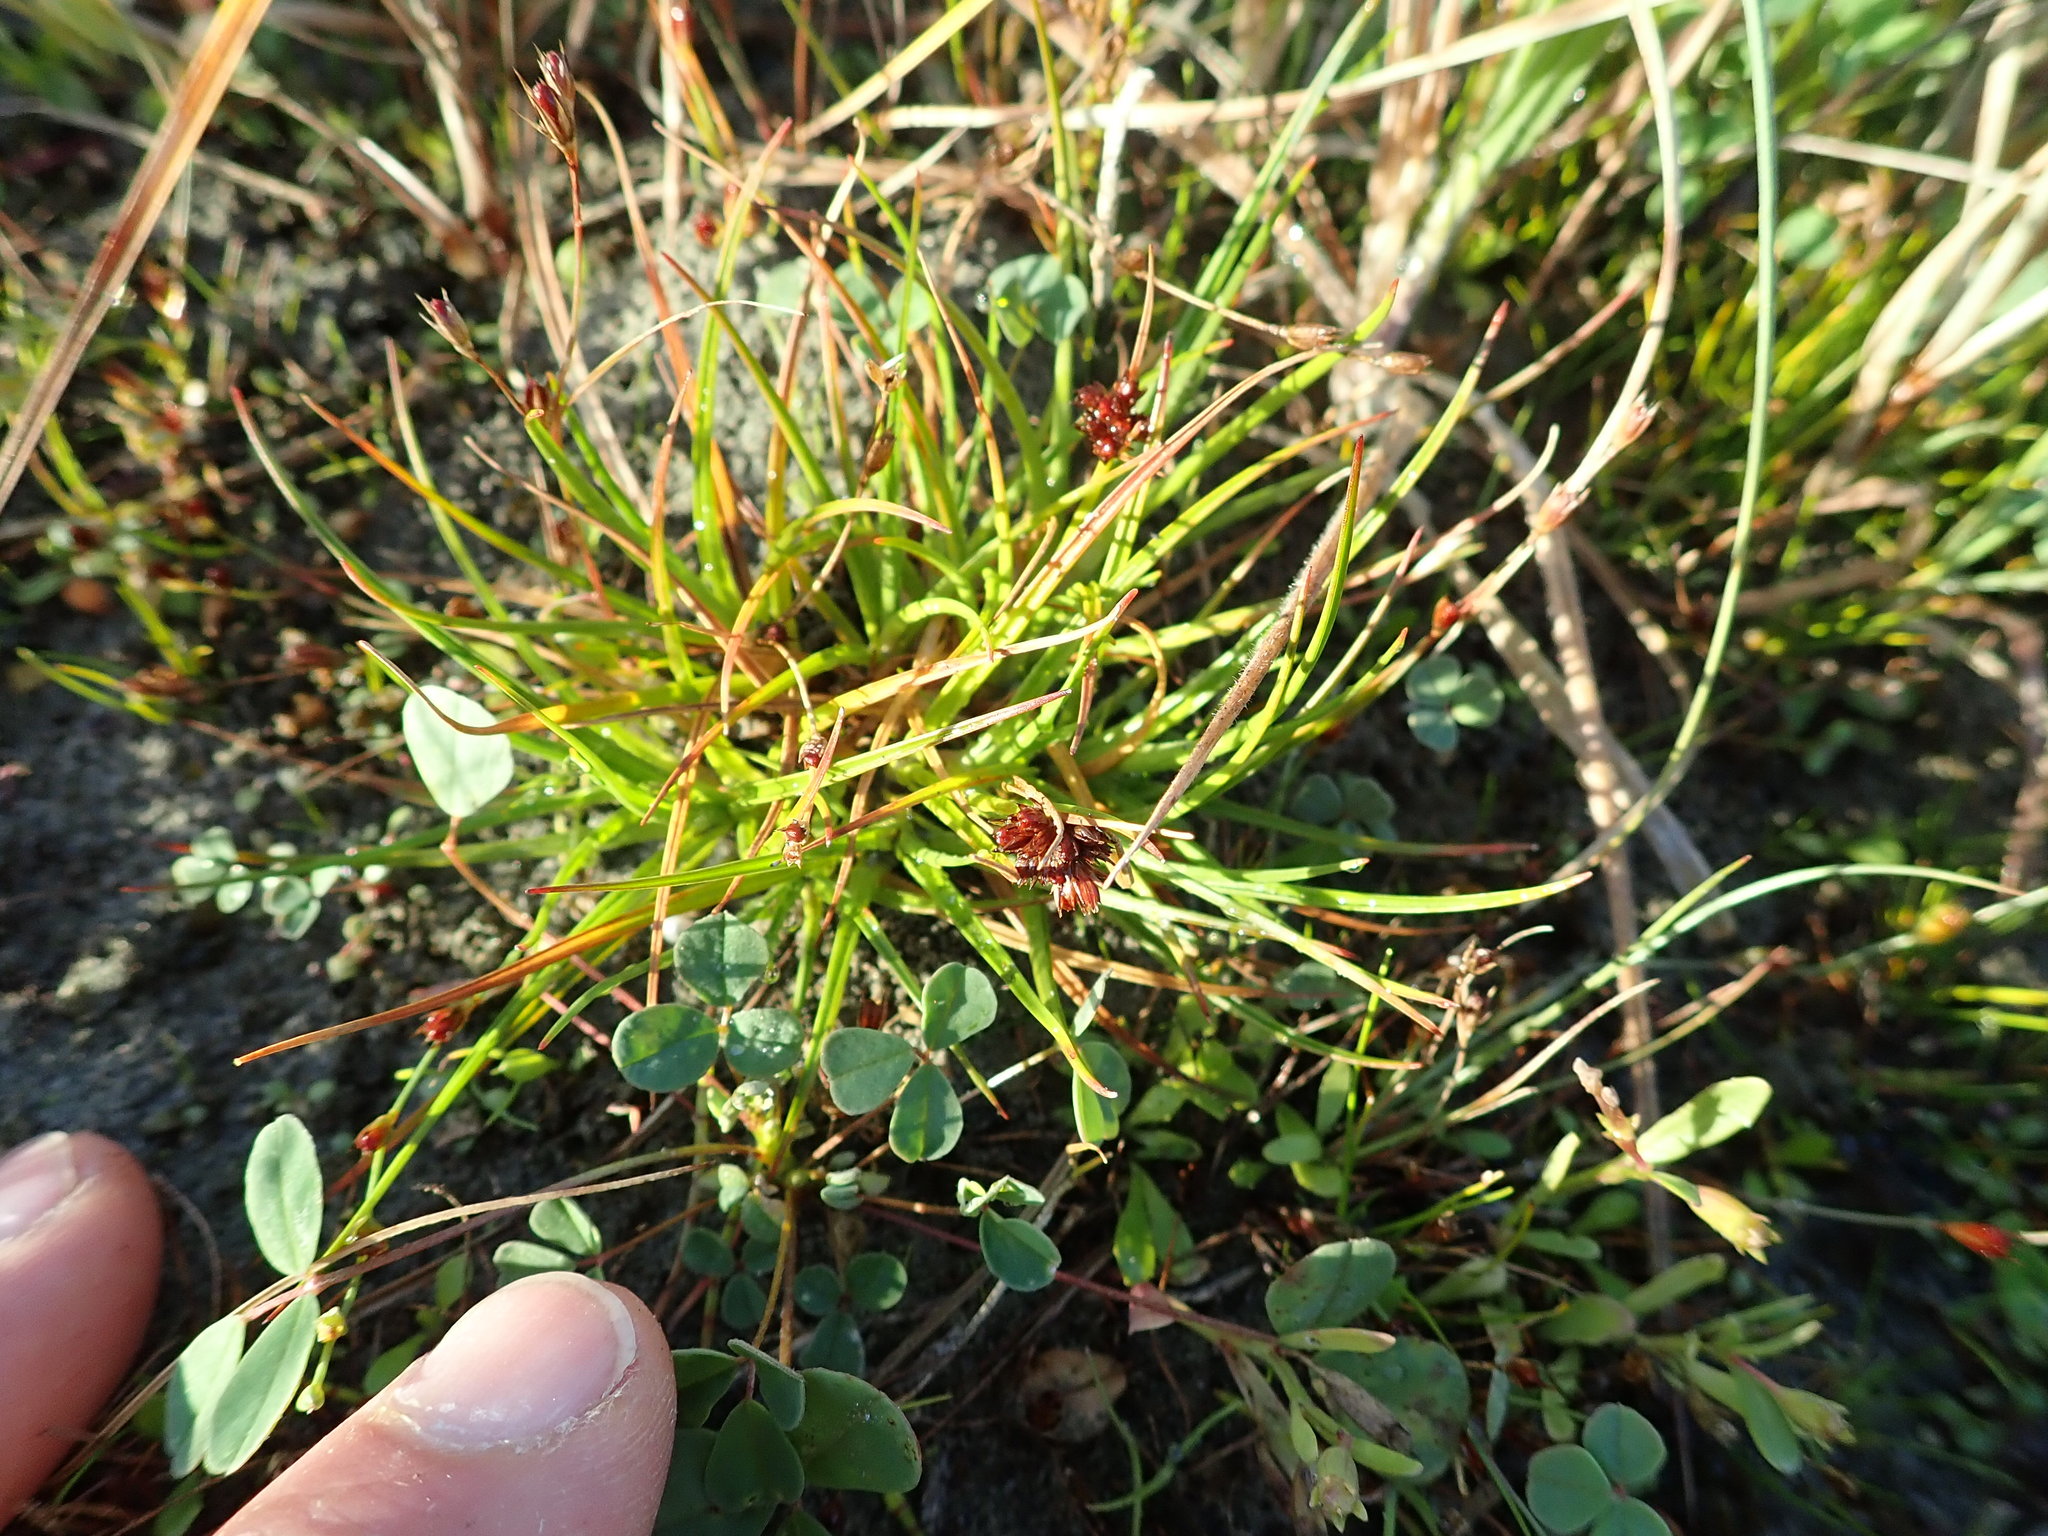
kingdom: Plantae
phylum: Tracheophyta
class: Liliopsida
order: Poales
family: Juncaceae
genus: Juncus
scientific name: Juncus caespiticius
